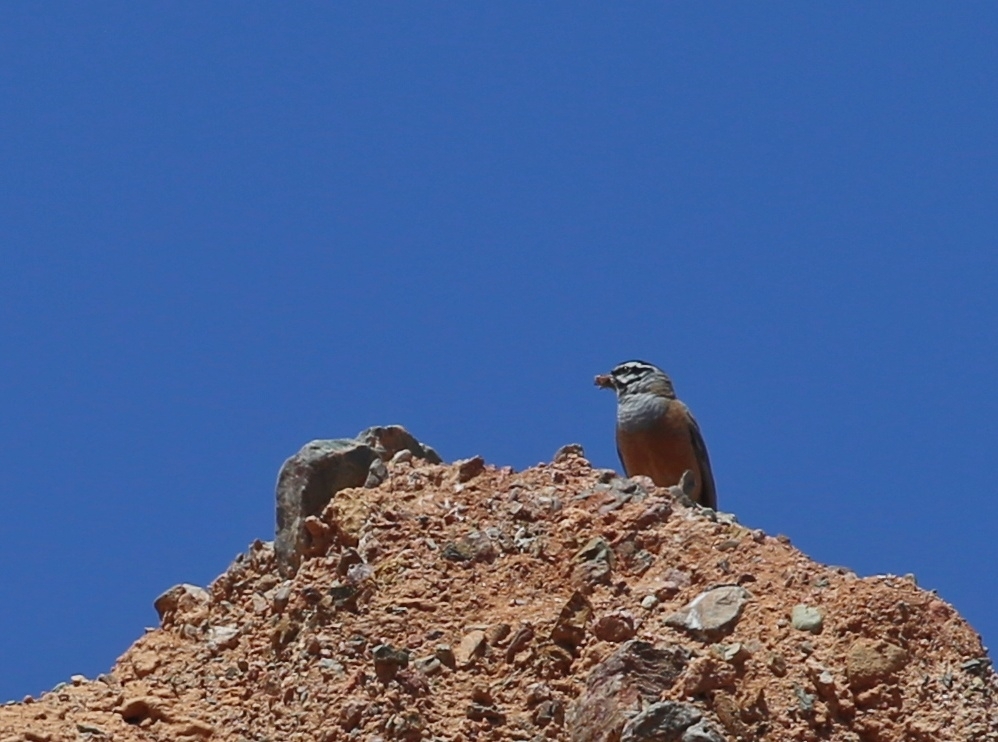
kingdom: Animalia
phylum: Chordata
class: Aves
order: Passeriformes
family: Emberizidae
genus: Emberiza
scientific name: Emberiza cia
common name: Rock bunting
